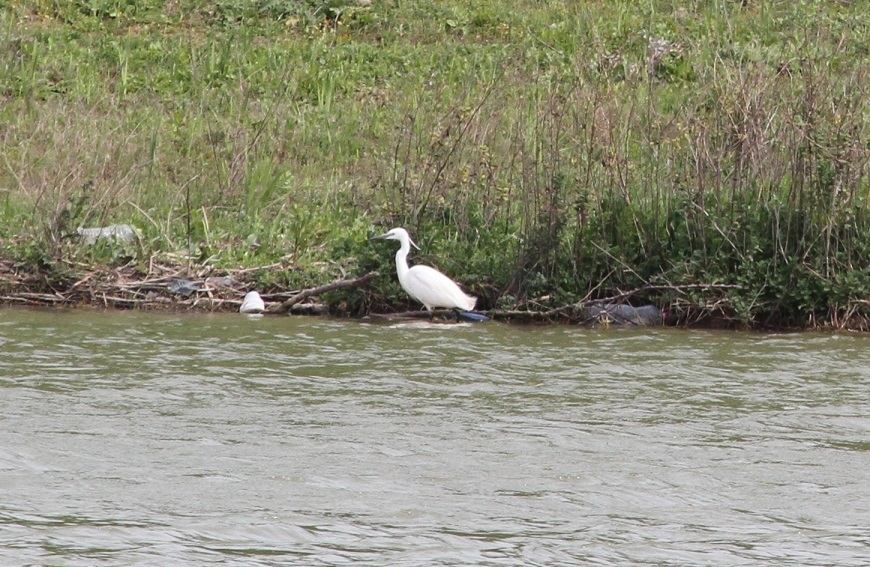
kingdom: Animalia
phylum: Chordata
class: Aves
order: Pelecaniformes
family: Ardeidae
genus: Egretta
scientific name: Egretta garzetta
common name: Little egret
